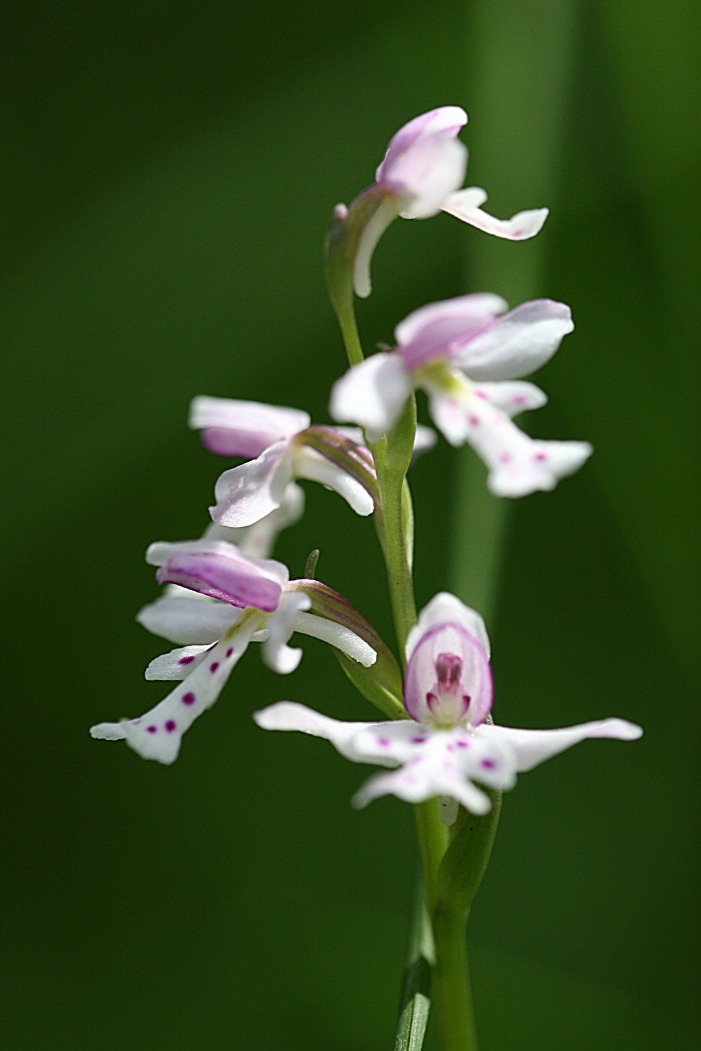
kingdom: Plantae
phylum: Tracheophyta
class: Liliopsida
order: Asparagales
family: Orchidaceae
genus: Galearis
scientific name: Galearis rotundifolia
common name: One-leaved orchis
